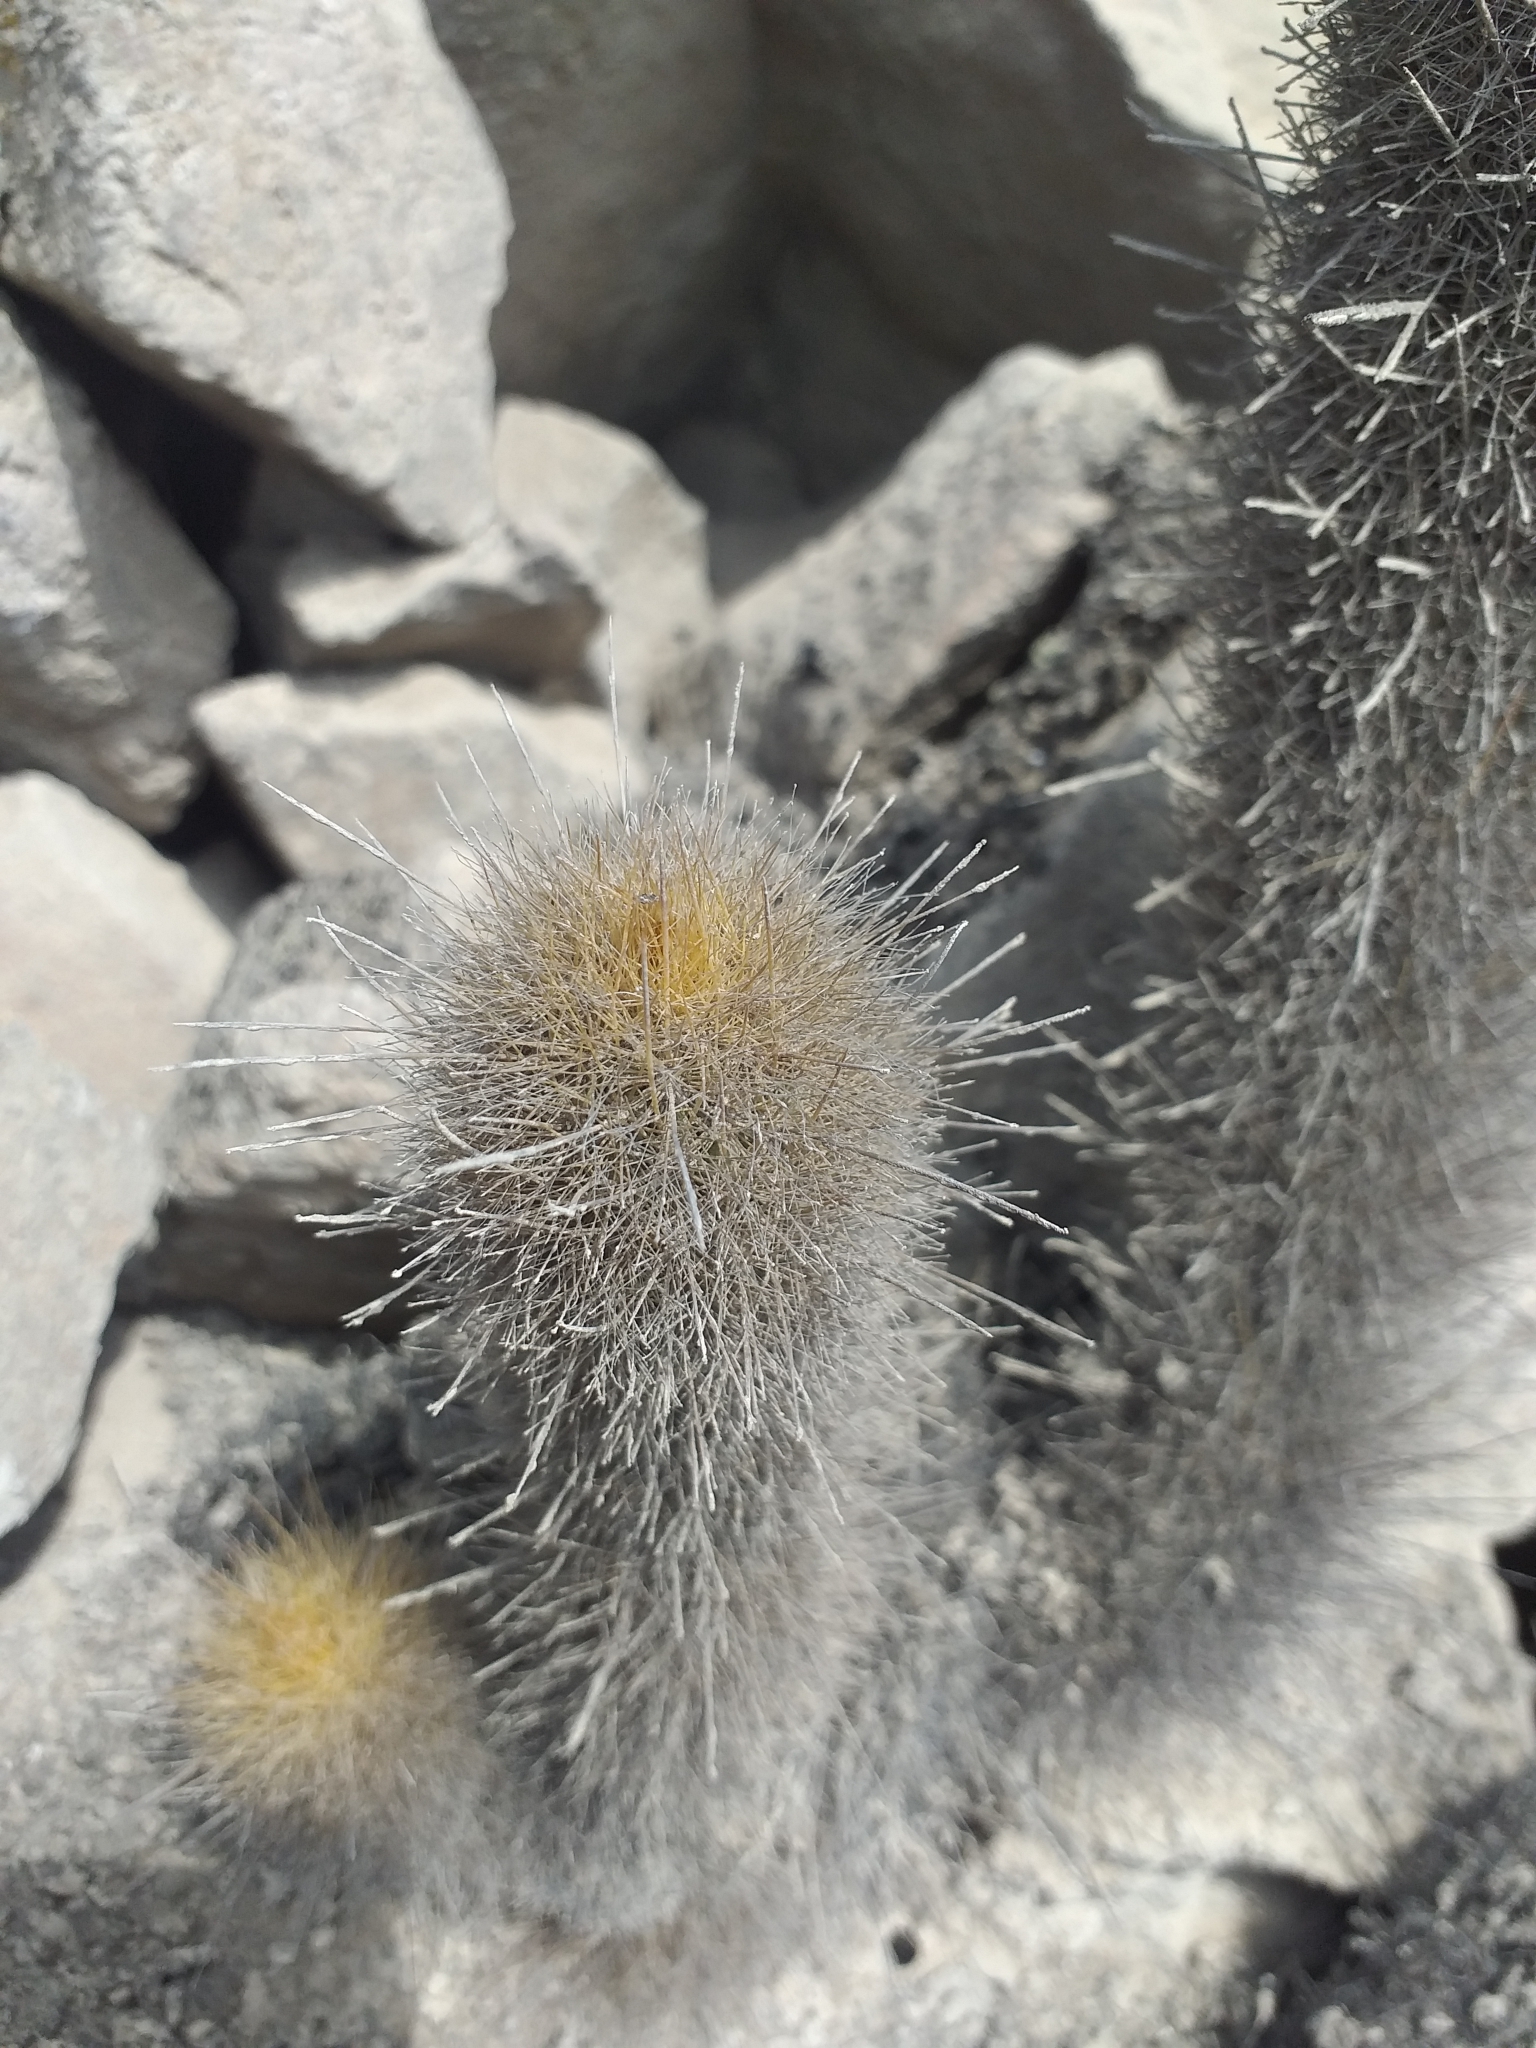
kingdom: Plantae
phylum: Tracheophyta
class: Magnoliopsida
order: Caryophyllales
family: Cactaceae
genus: Haageocereus
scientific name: Haageocereus pseudomelanostele
